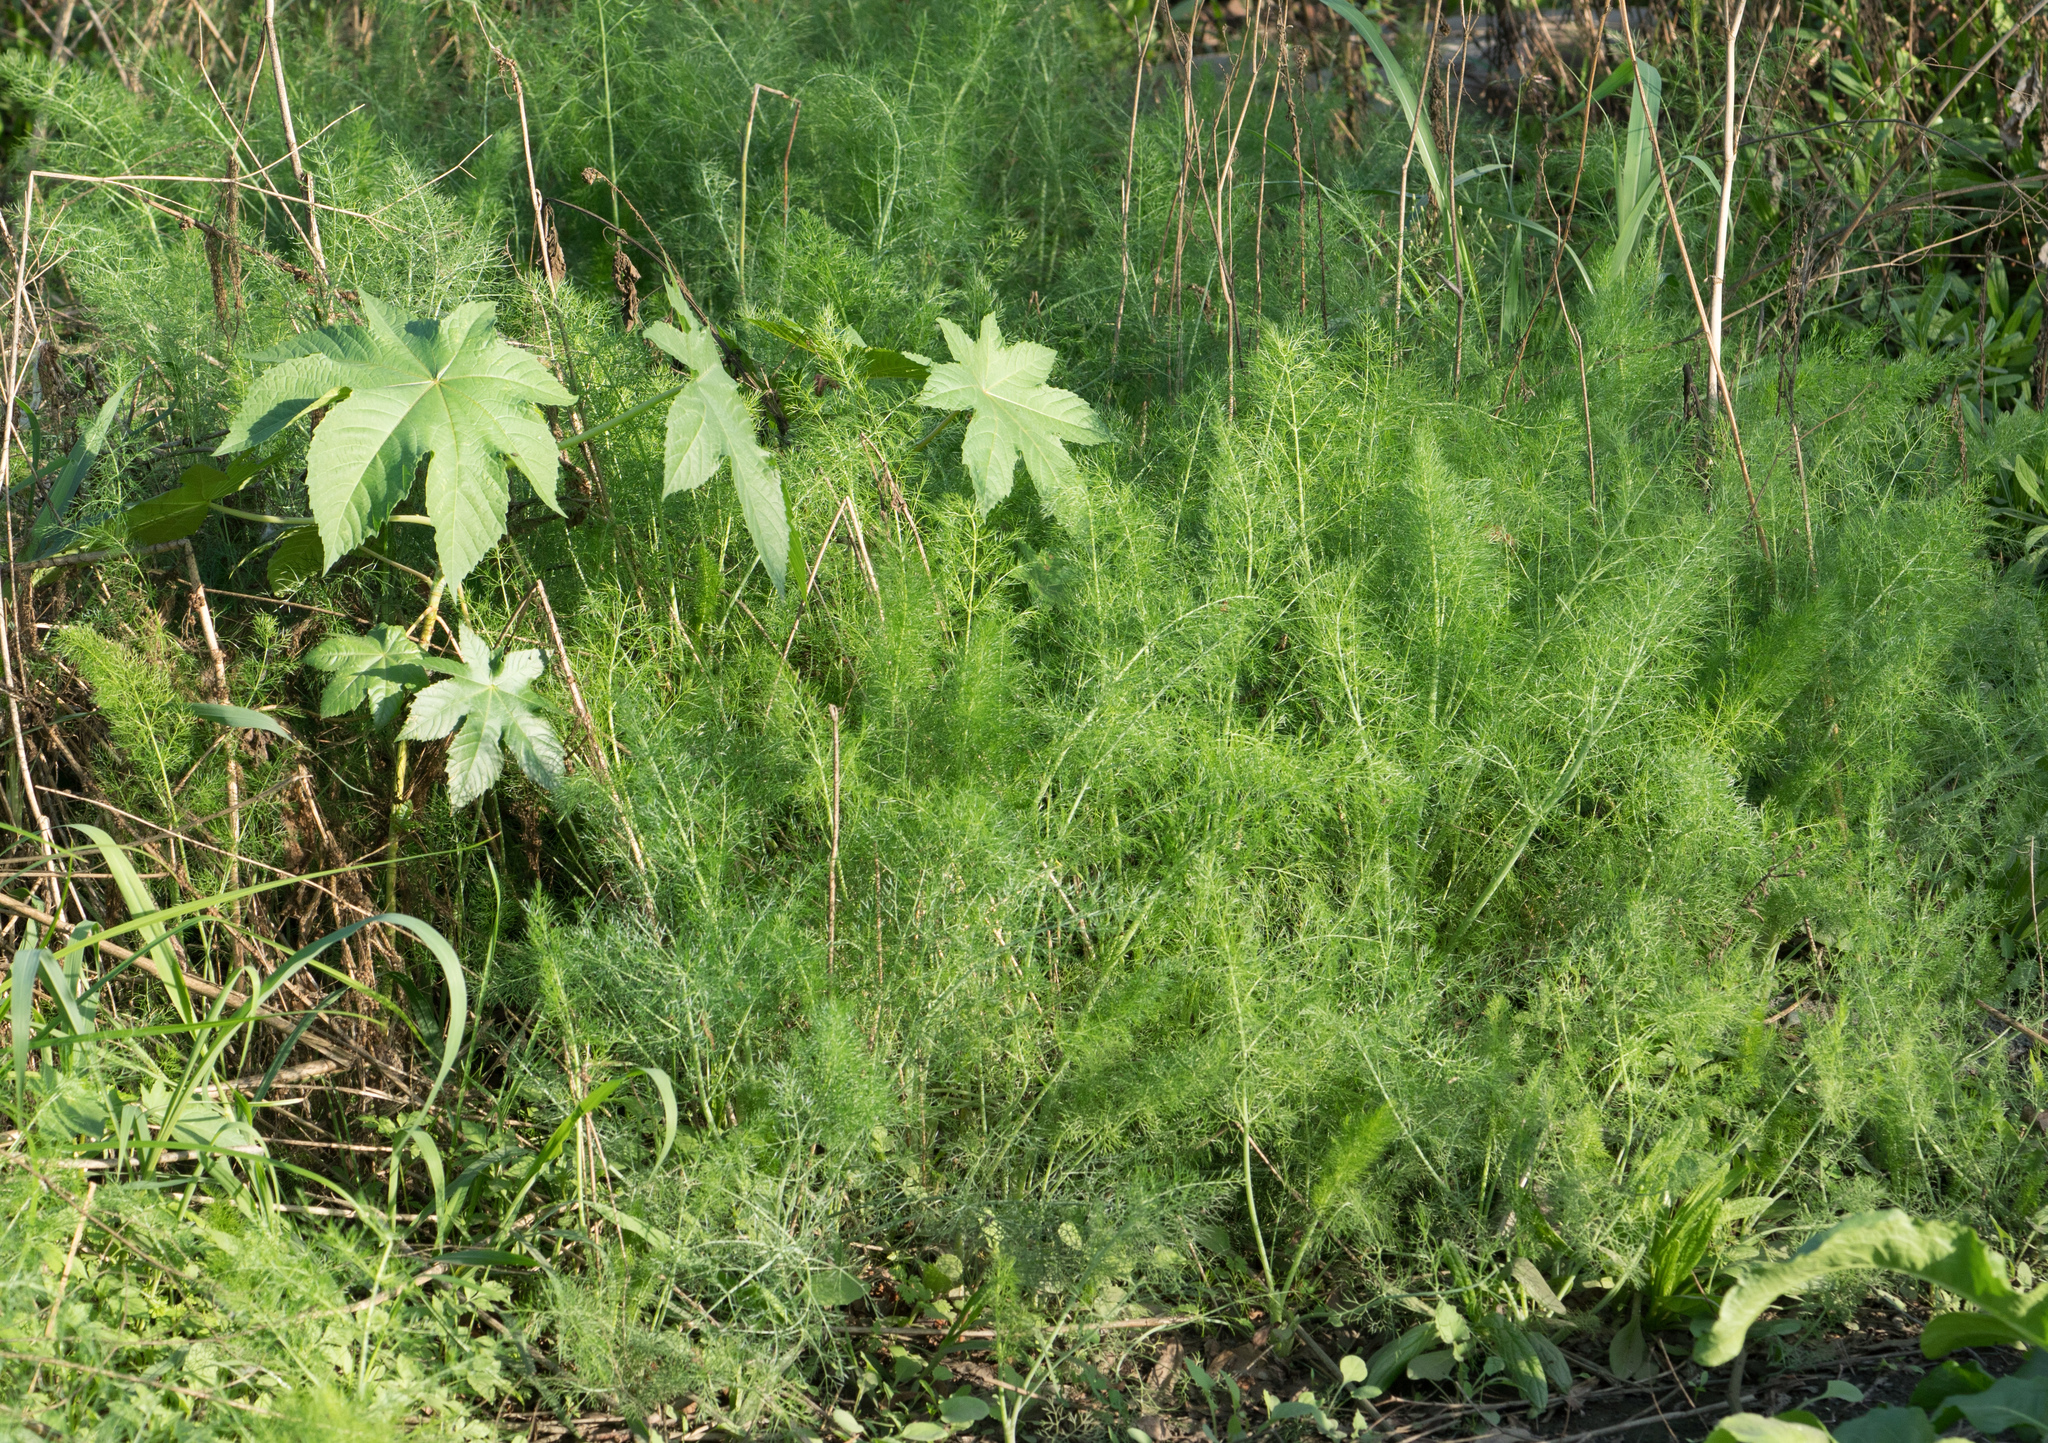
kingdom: Plantae
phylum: Tracheophyta
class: Magnoliopsida
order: Apiales
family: Apiaceae
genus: Foeniculum
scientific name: Foeniculum vulgare
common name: Fennel
